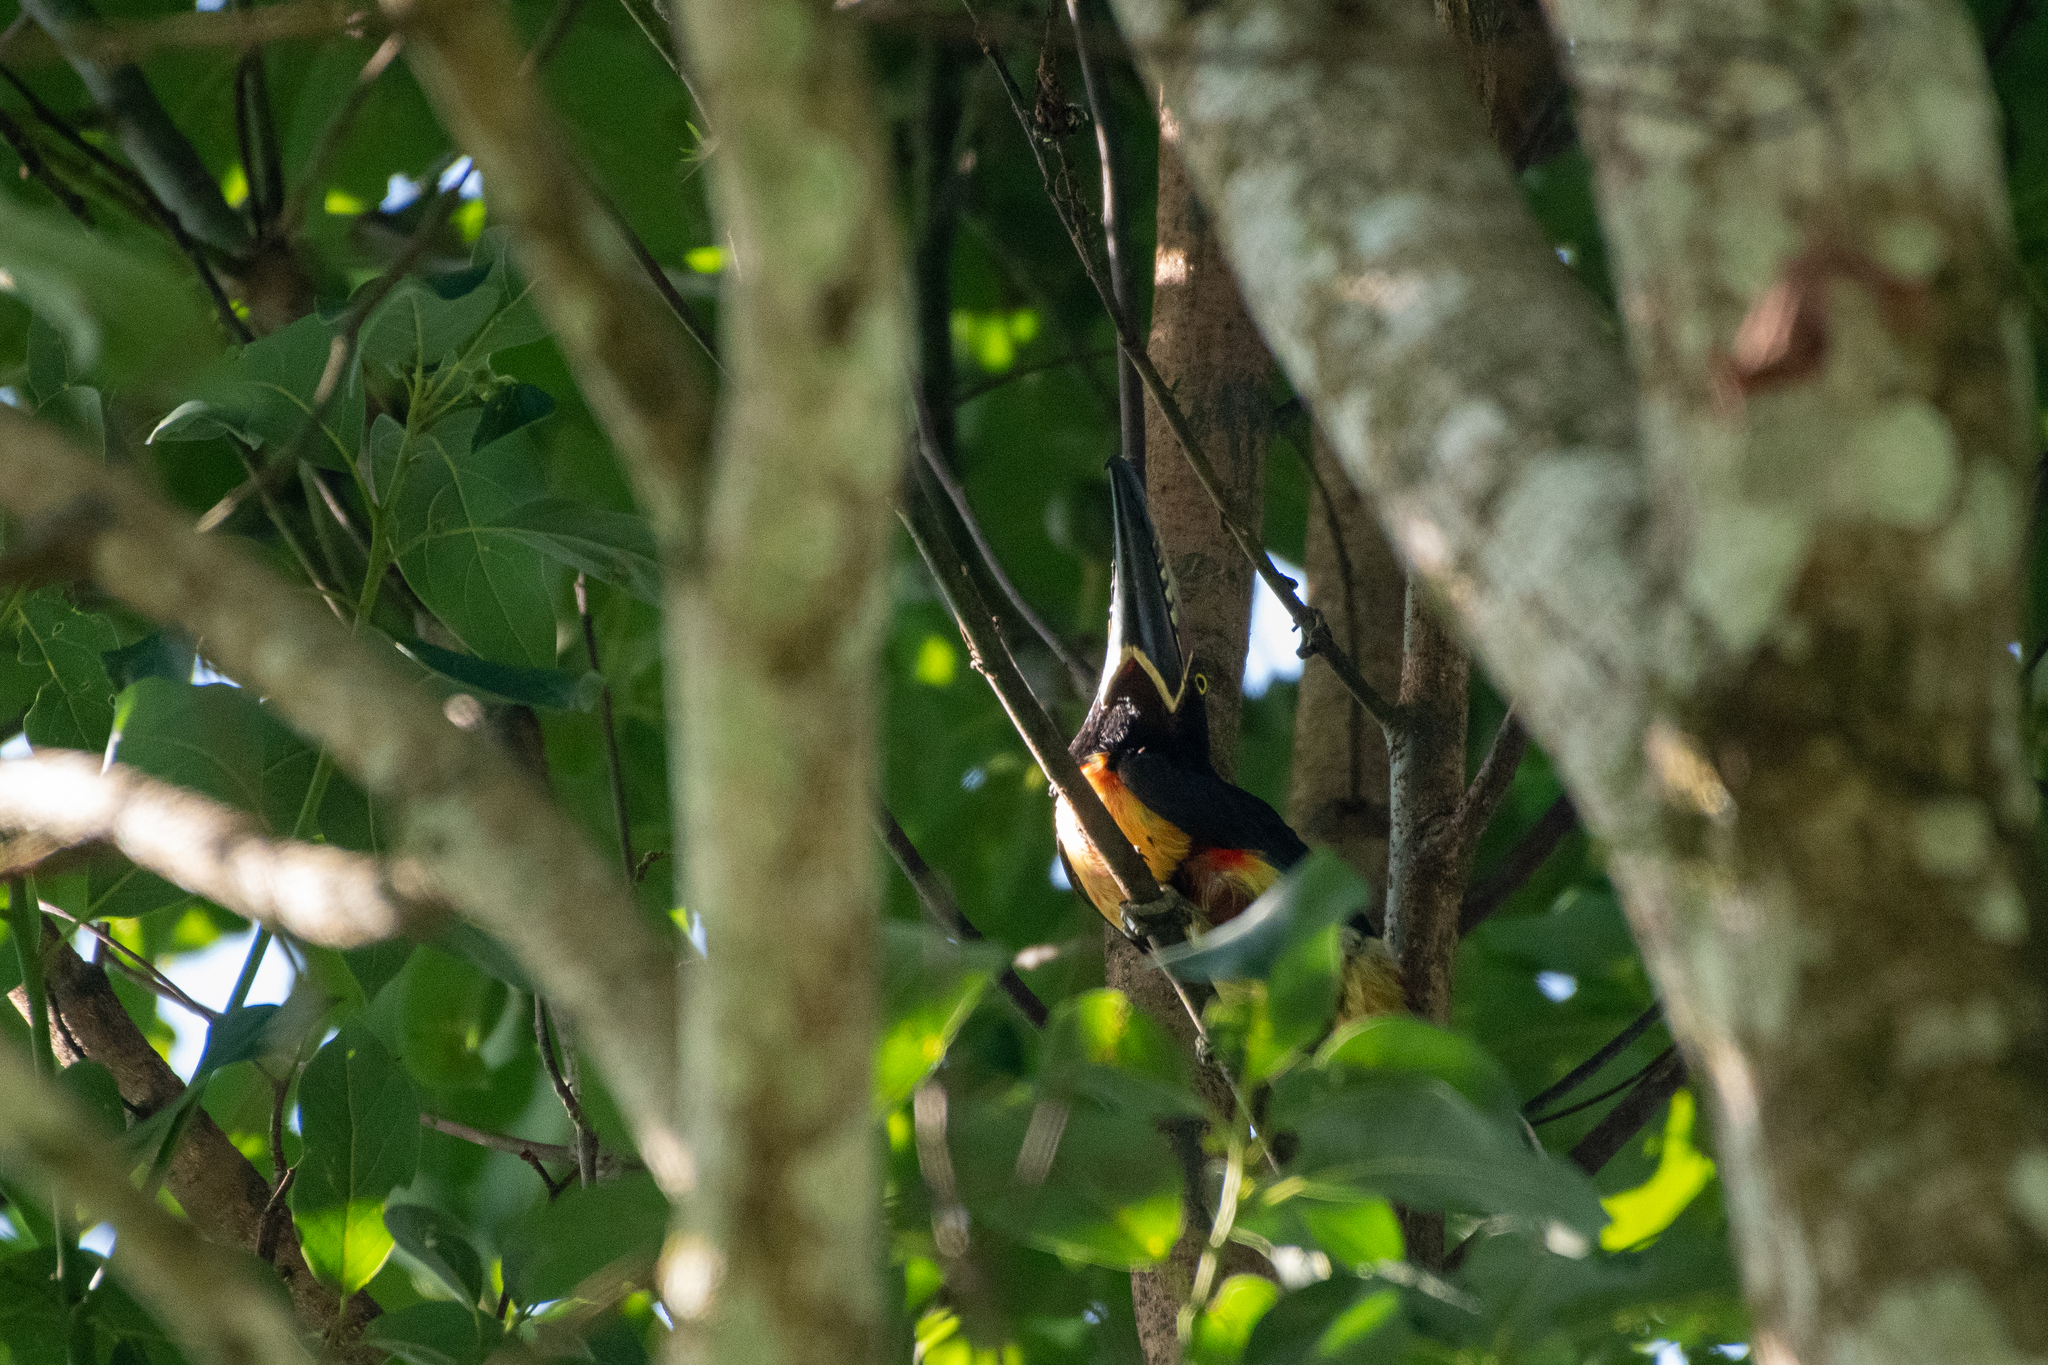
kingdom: Animalia
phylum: Chordata
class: Aves
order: Piciformes
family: Ramphastidae
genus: Pteroglossus
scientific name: Pteroglossus torquatus
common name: Collared aracari
